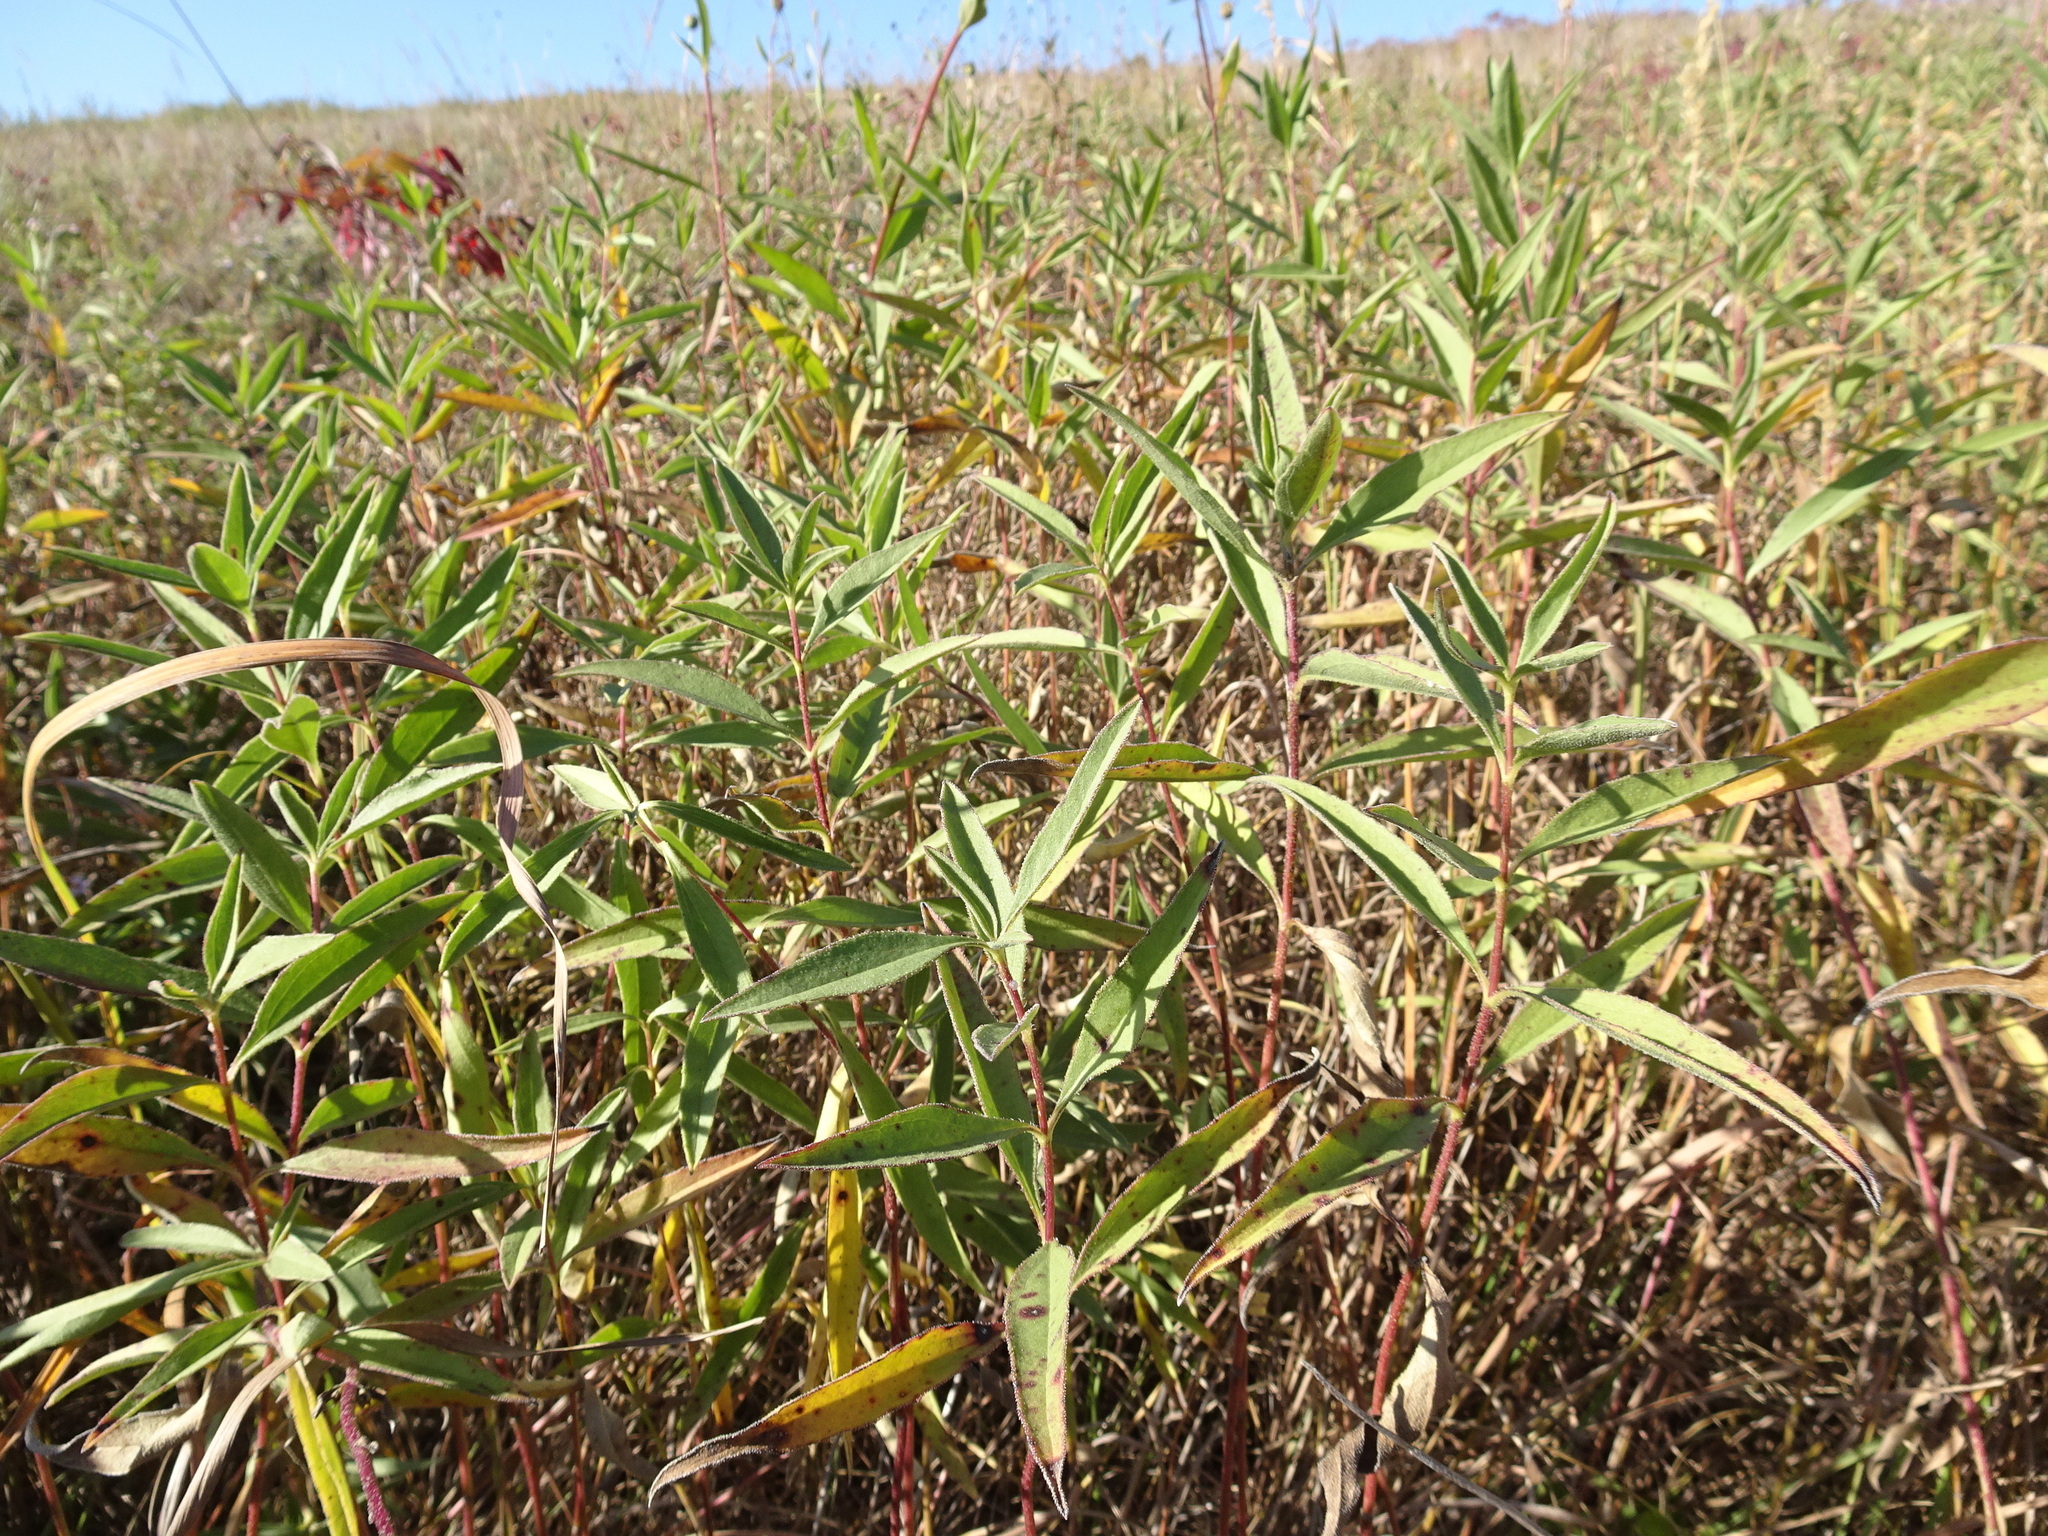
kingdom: Plantae
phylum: Tracheophyta
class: Magnoliopsida
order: Asterales
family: Asteraceae
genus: Helianthus
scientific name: Helianthus pauciflorus
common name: Stiff sunflower
